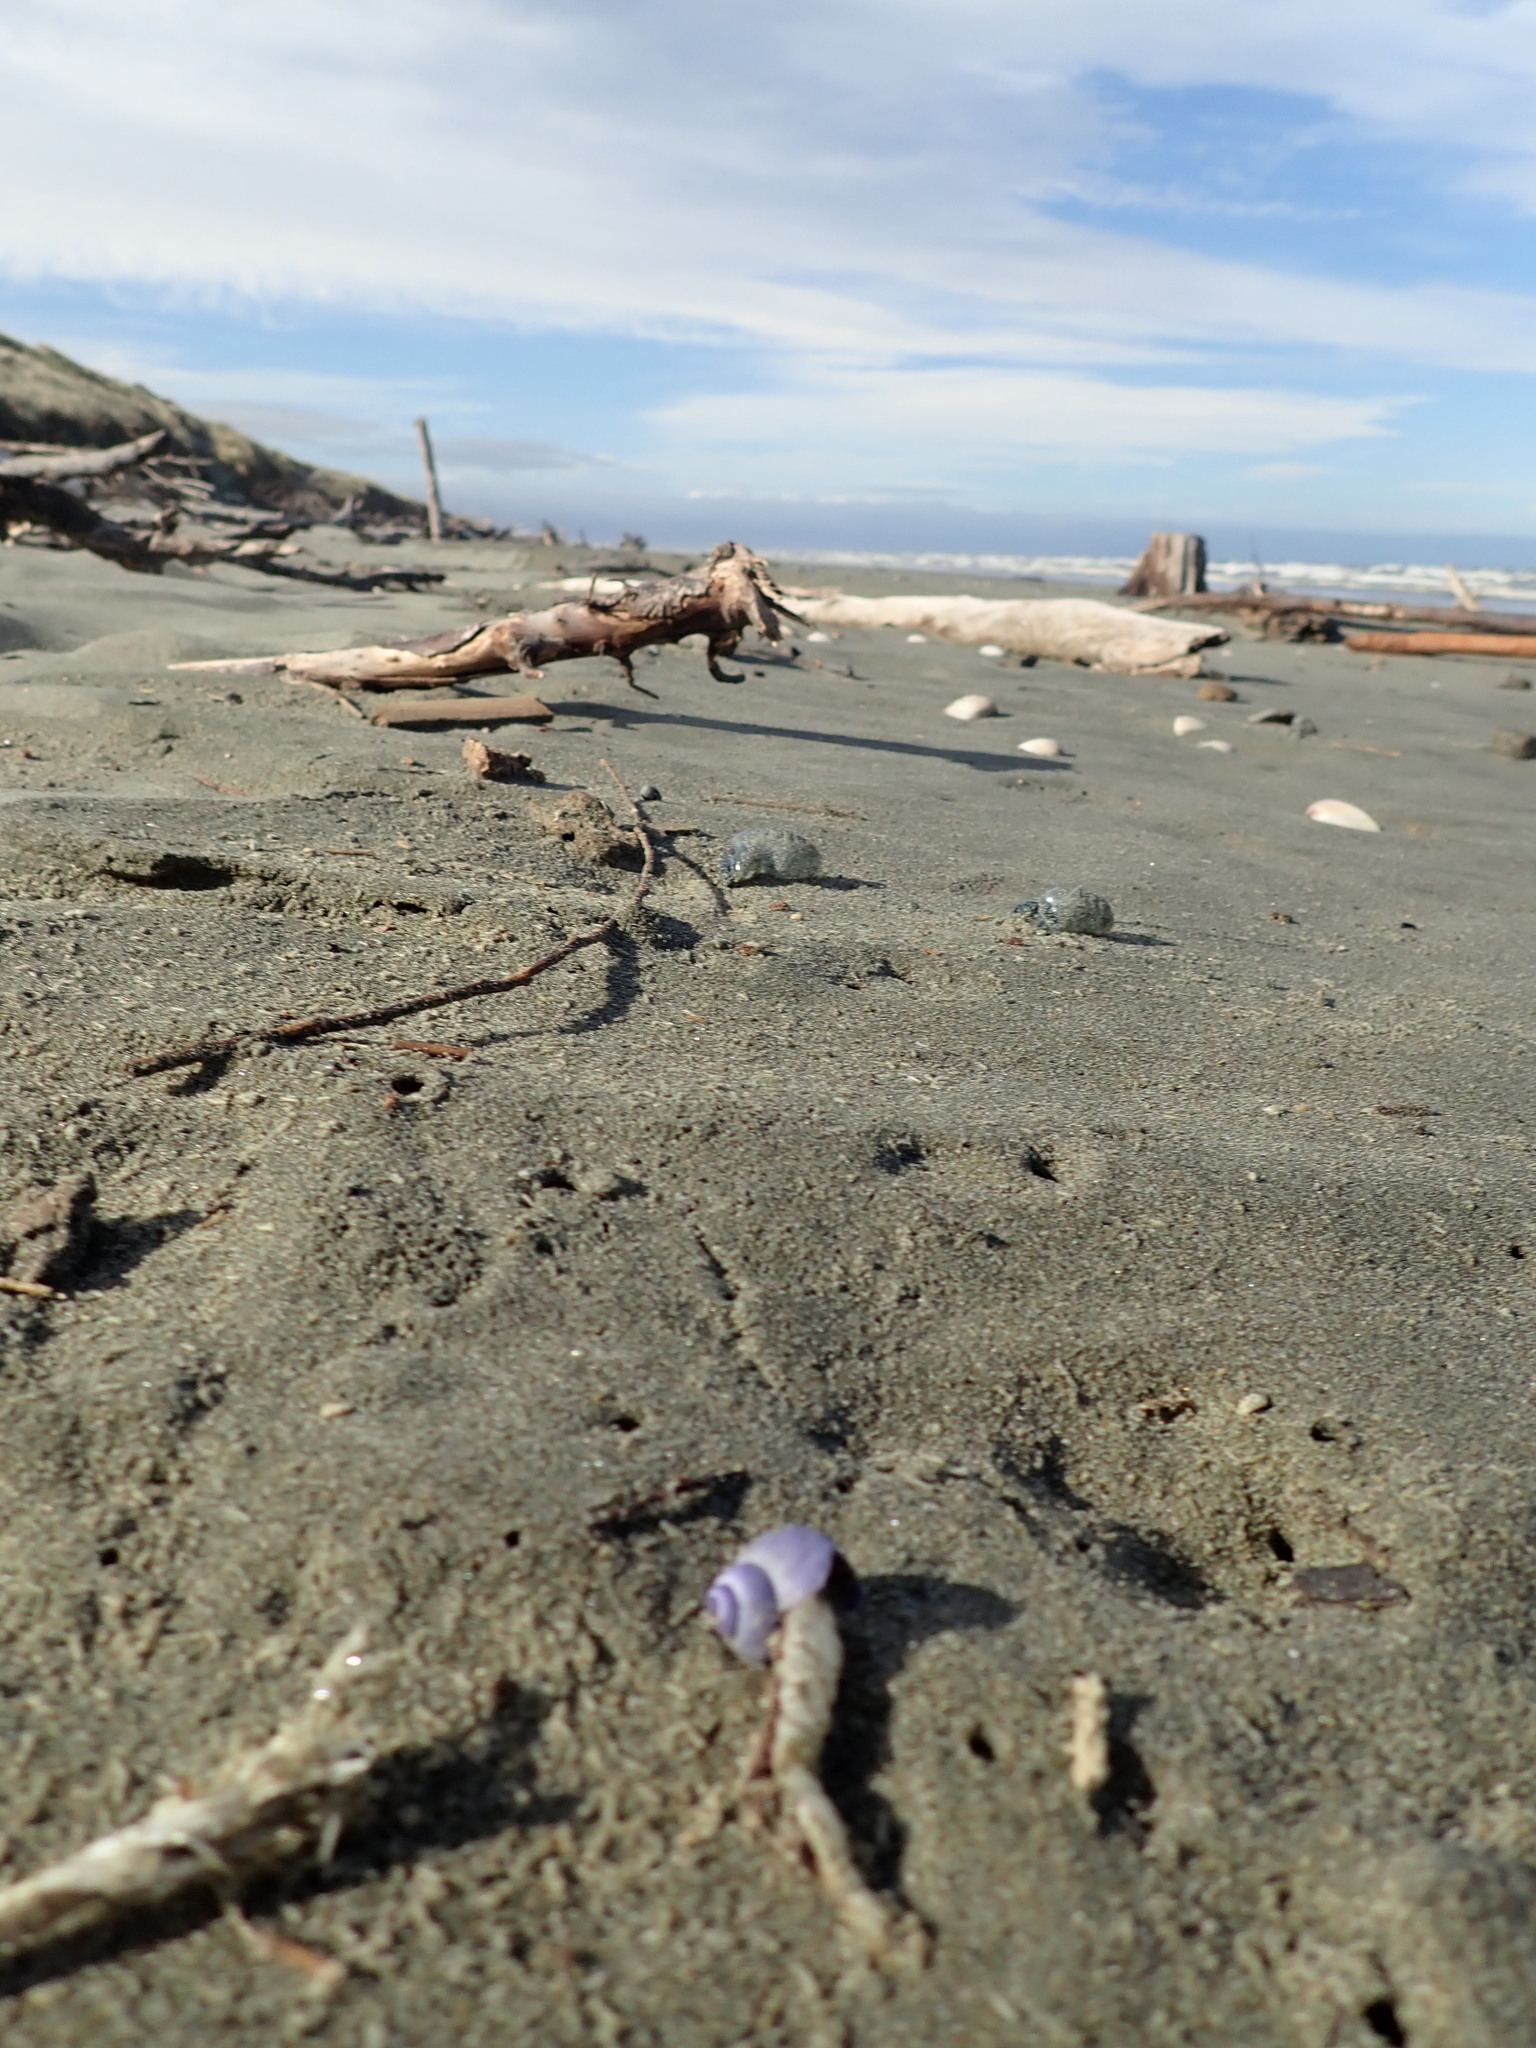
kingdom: Animalia
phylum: Mollusca
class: Gastropoda
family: Epitoniidae
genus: Janthina
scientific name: Janthina exigua
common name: Dwarf janthina
